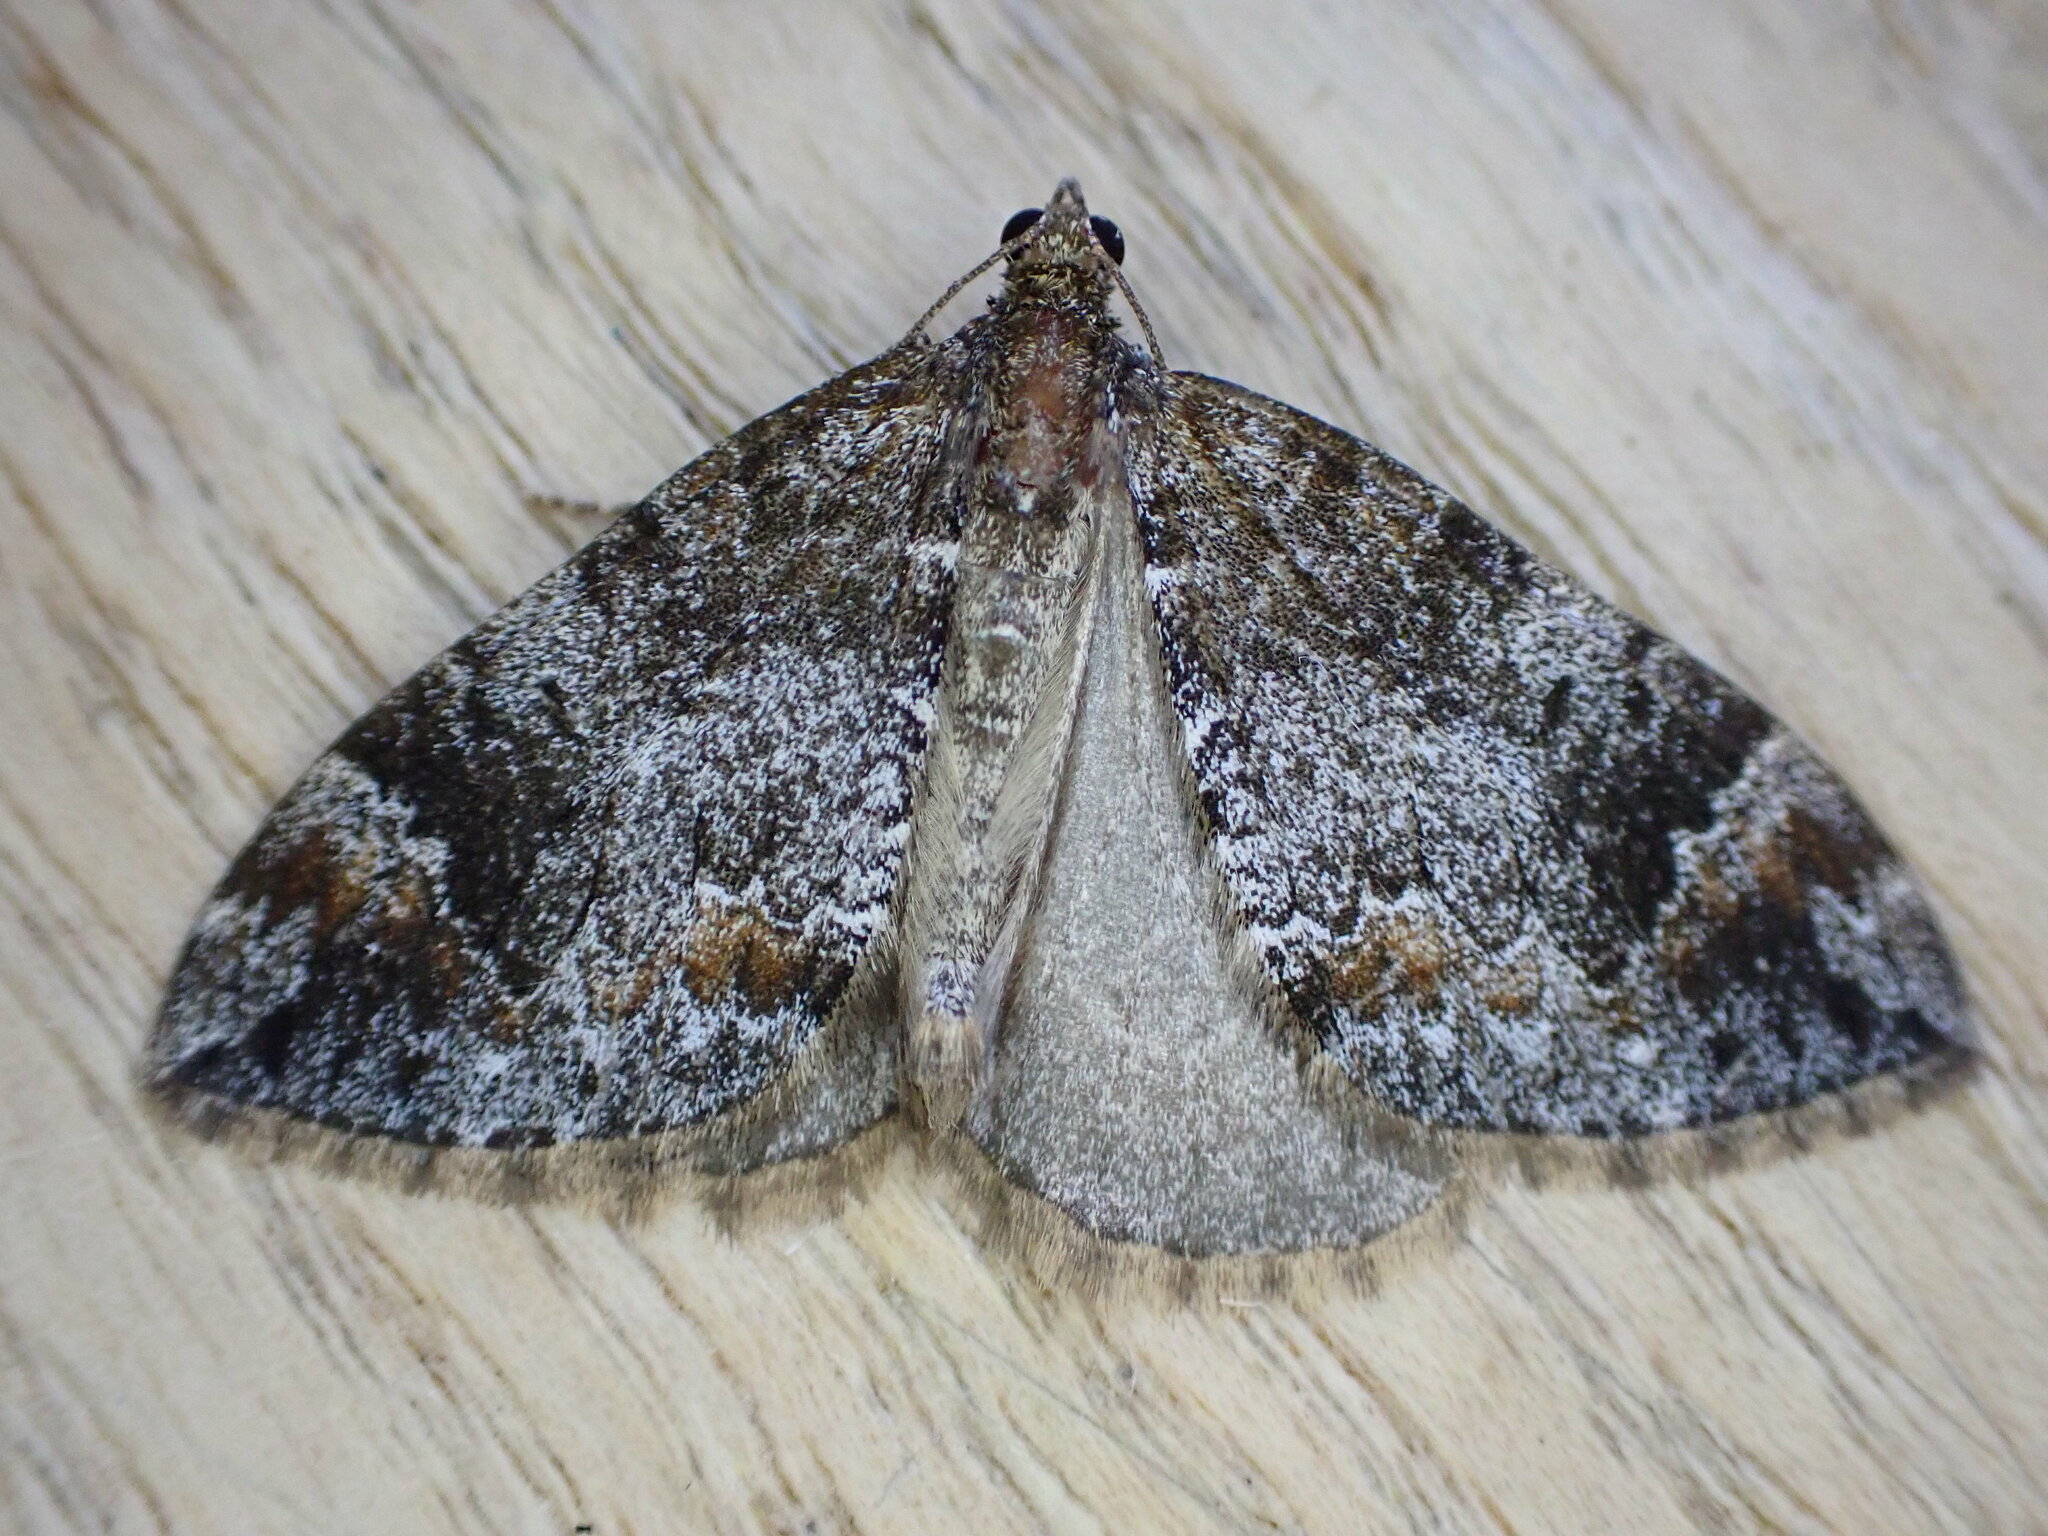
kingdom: Animalia
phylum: Arthropoda
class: Insecta
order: Lepidoptera
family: Geometridae
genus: Dysstroma
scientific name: Dysstroma truncata
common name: Common marbled carpet
